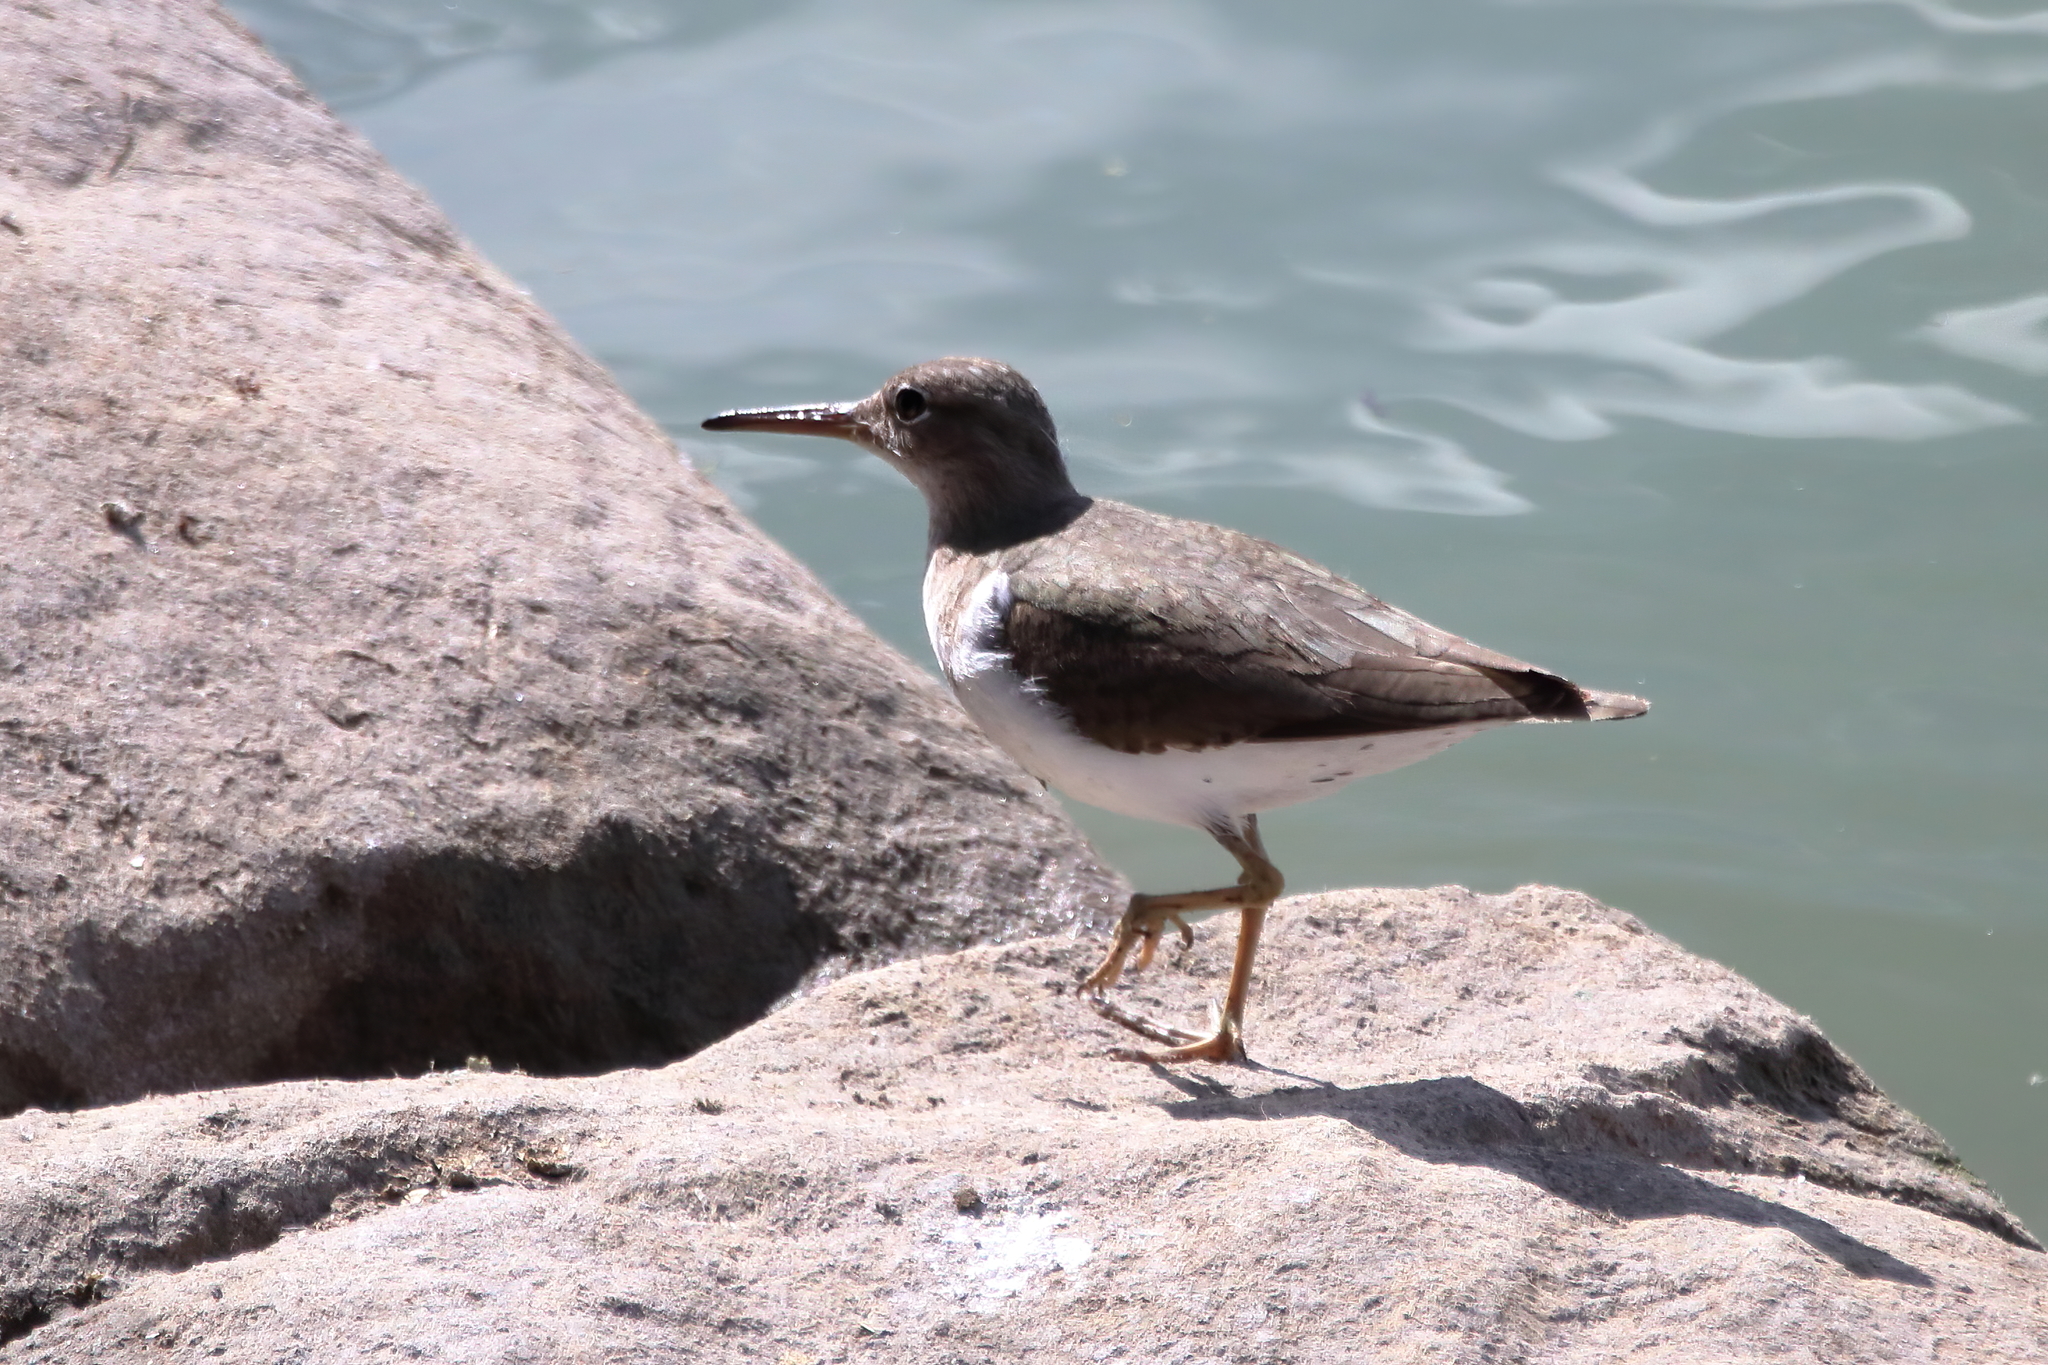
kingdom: Animalia
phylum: Chordata
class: Aves
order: Charadriiformes
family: Scolopacidae
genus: Actitis
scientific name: Actitis macularius
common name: Spotted sandpiper
